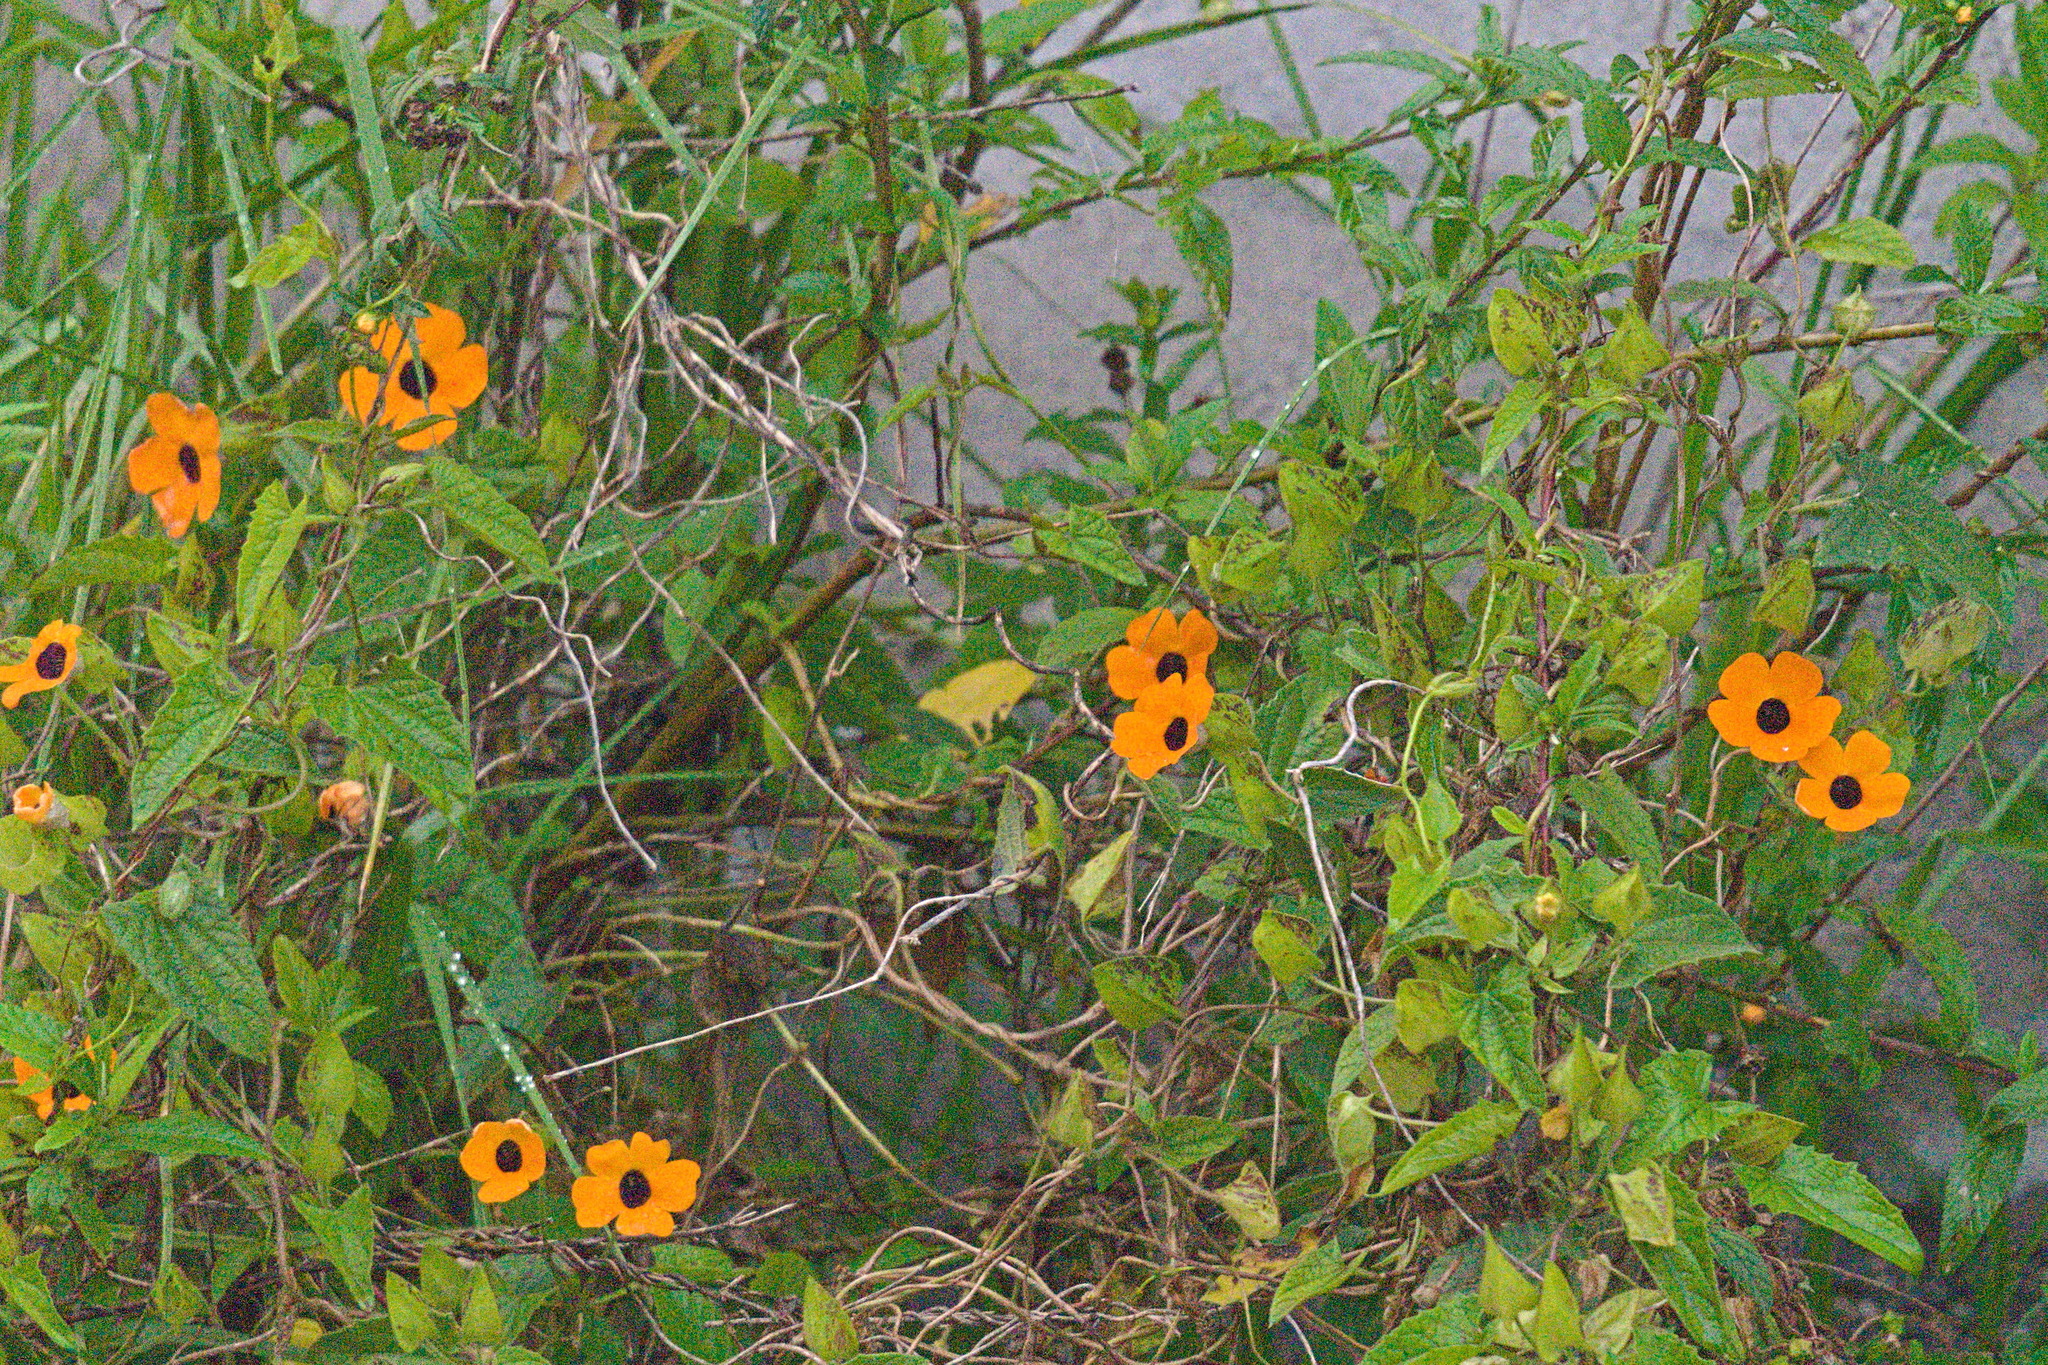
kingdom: Plantae
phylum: Tracheophyta
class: Magnoliopsida
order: Lamiales
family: Acanthaceae
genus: Thunbergia
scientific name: Thunbergia alata
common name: Blackeyed susan vine
